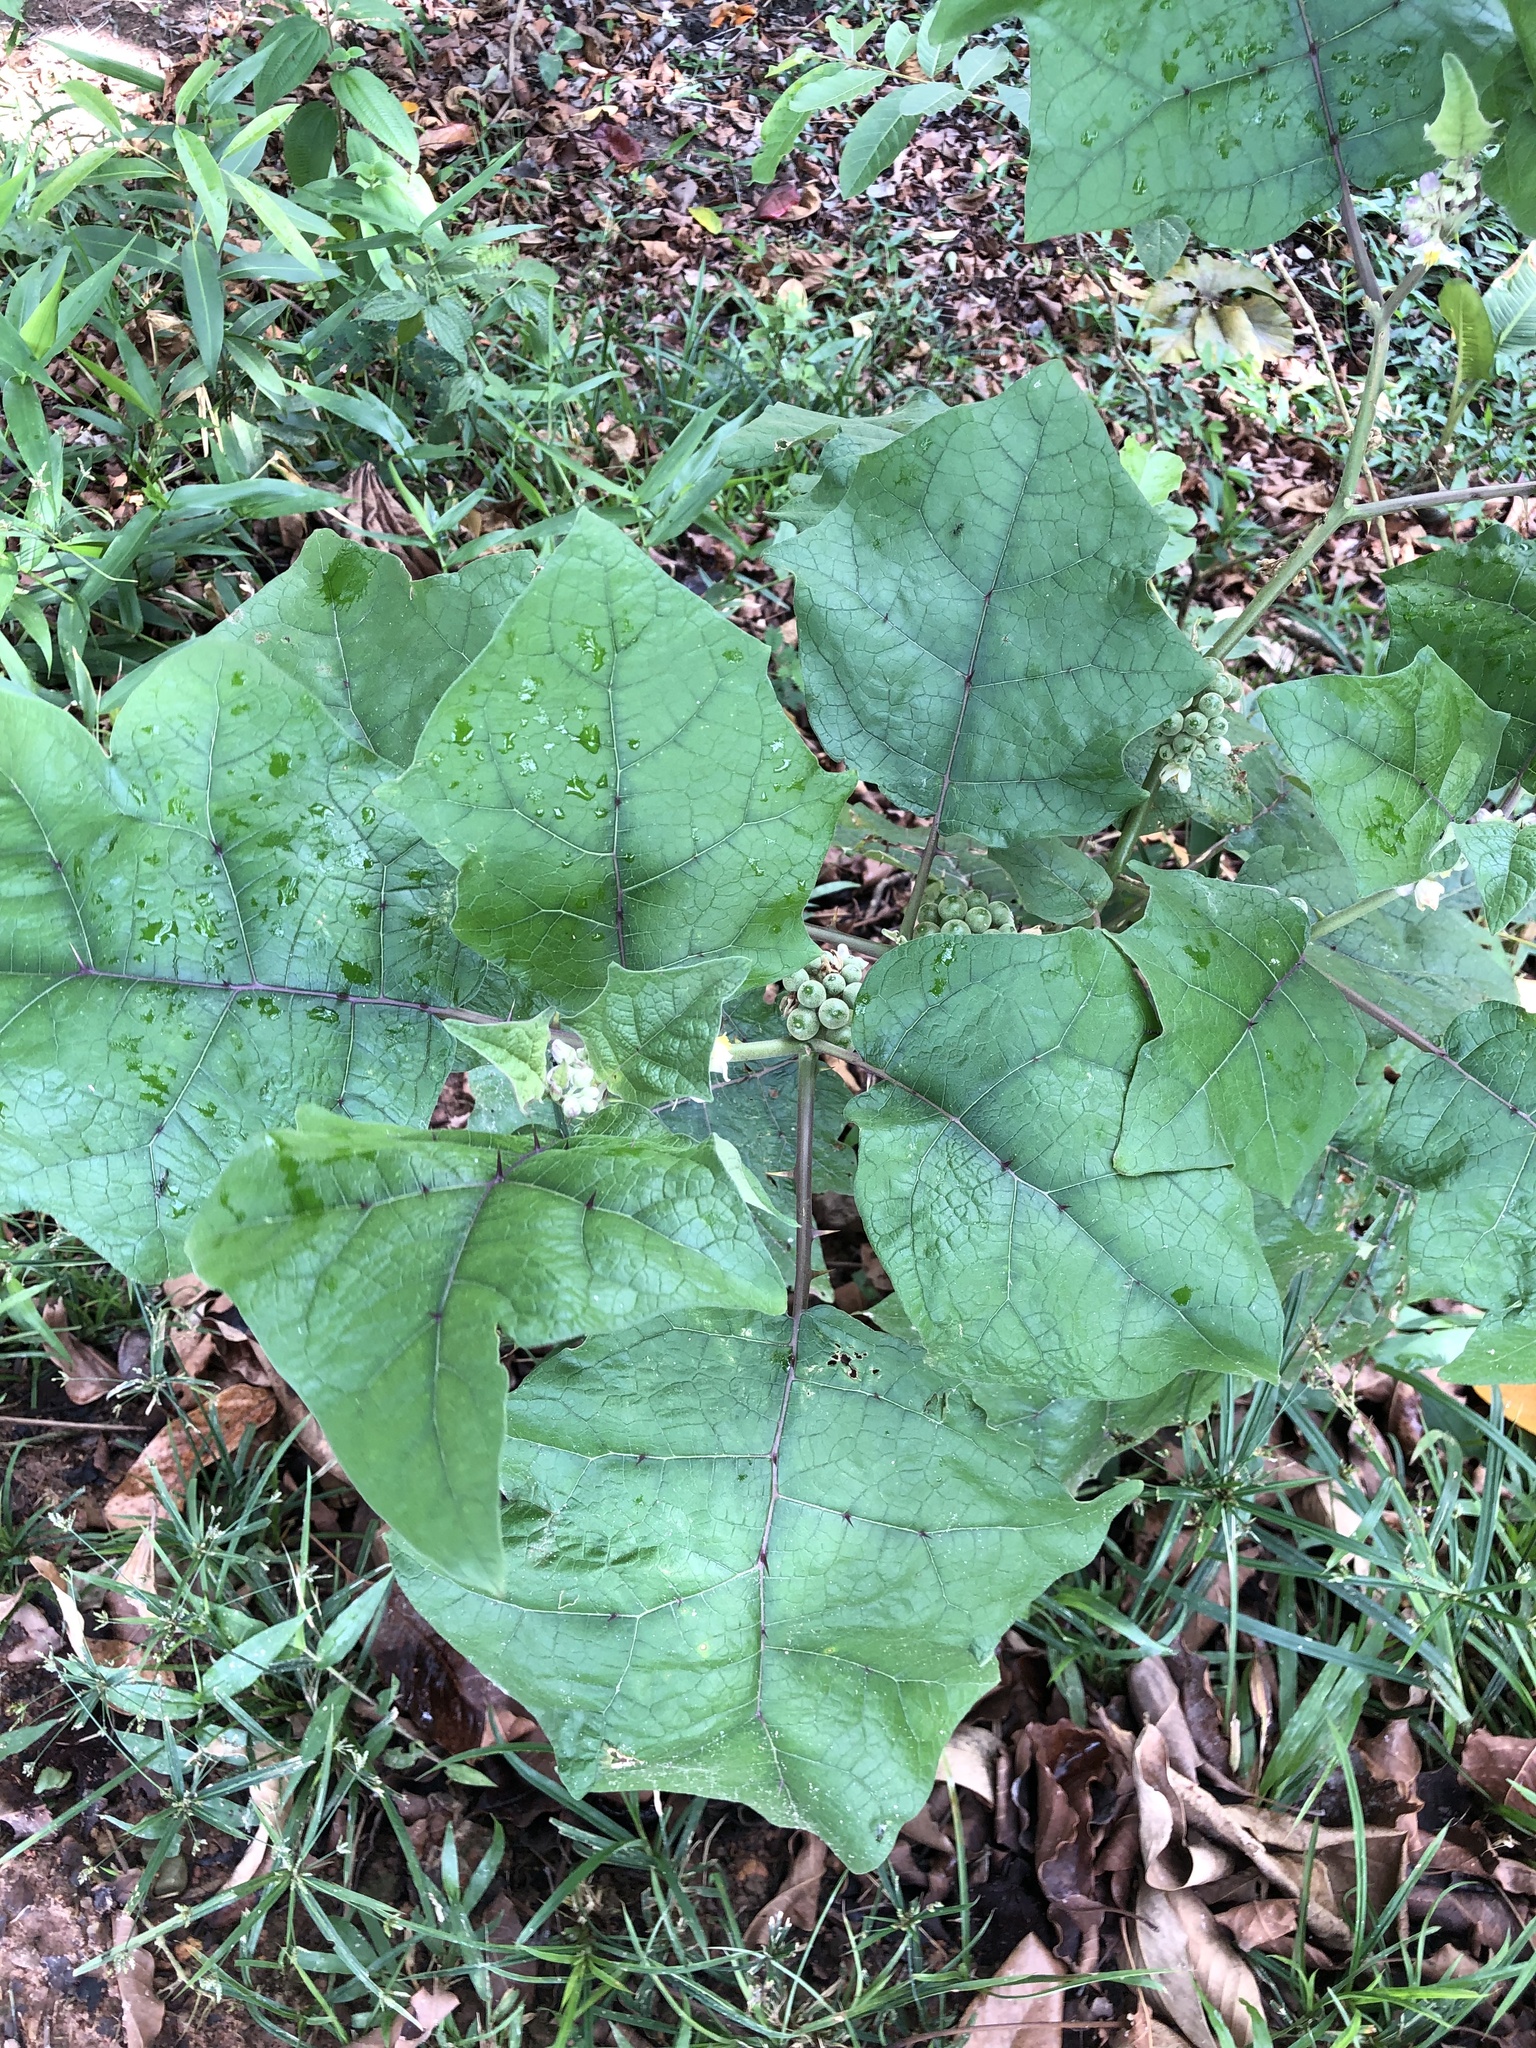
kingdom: Plantae
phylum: Tracheophyta
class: Magnoliopsida
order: Solanales
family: Solanaceae
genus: Solanum
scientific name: Solanum
